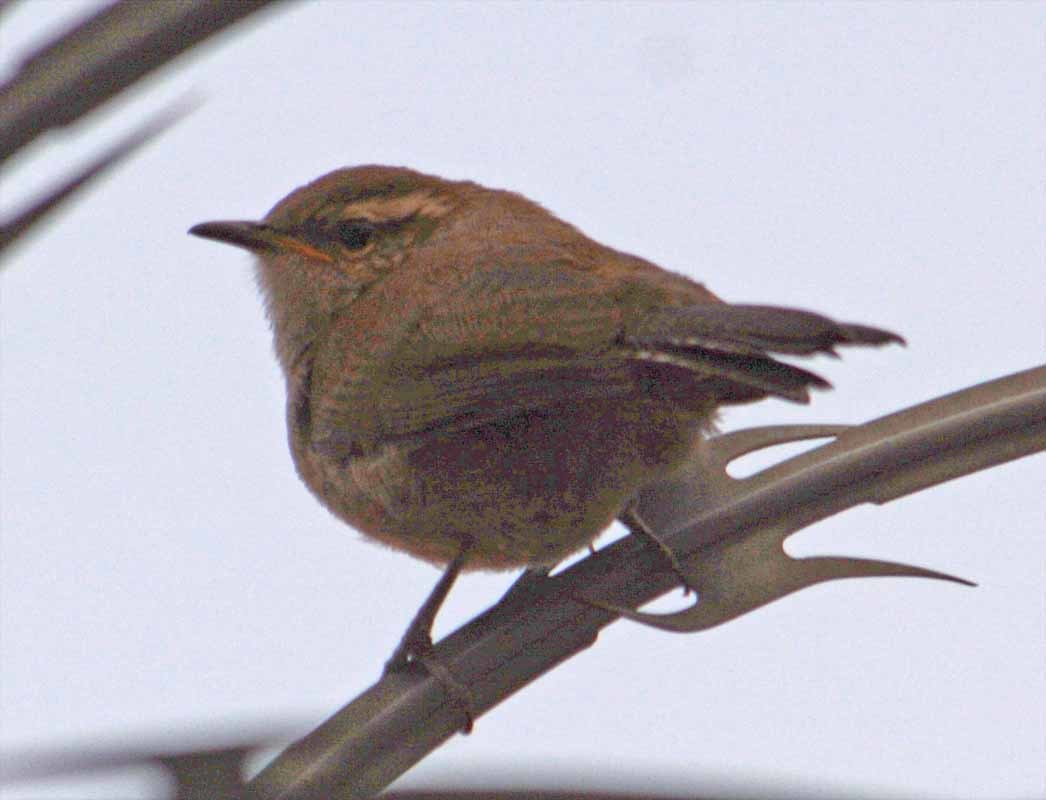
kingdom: Animalia
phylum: Chordata
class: Aves
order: Passeriformes
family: Troglodytidae
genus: Thryomanes
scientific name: Thryomanes bewickii
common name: Bewick's wren
